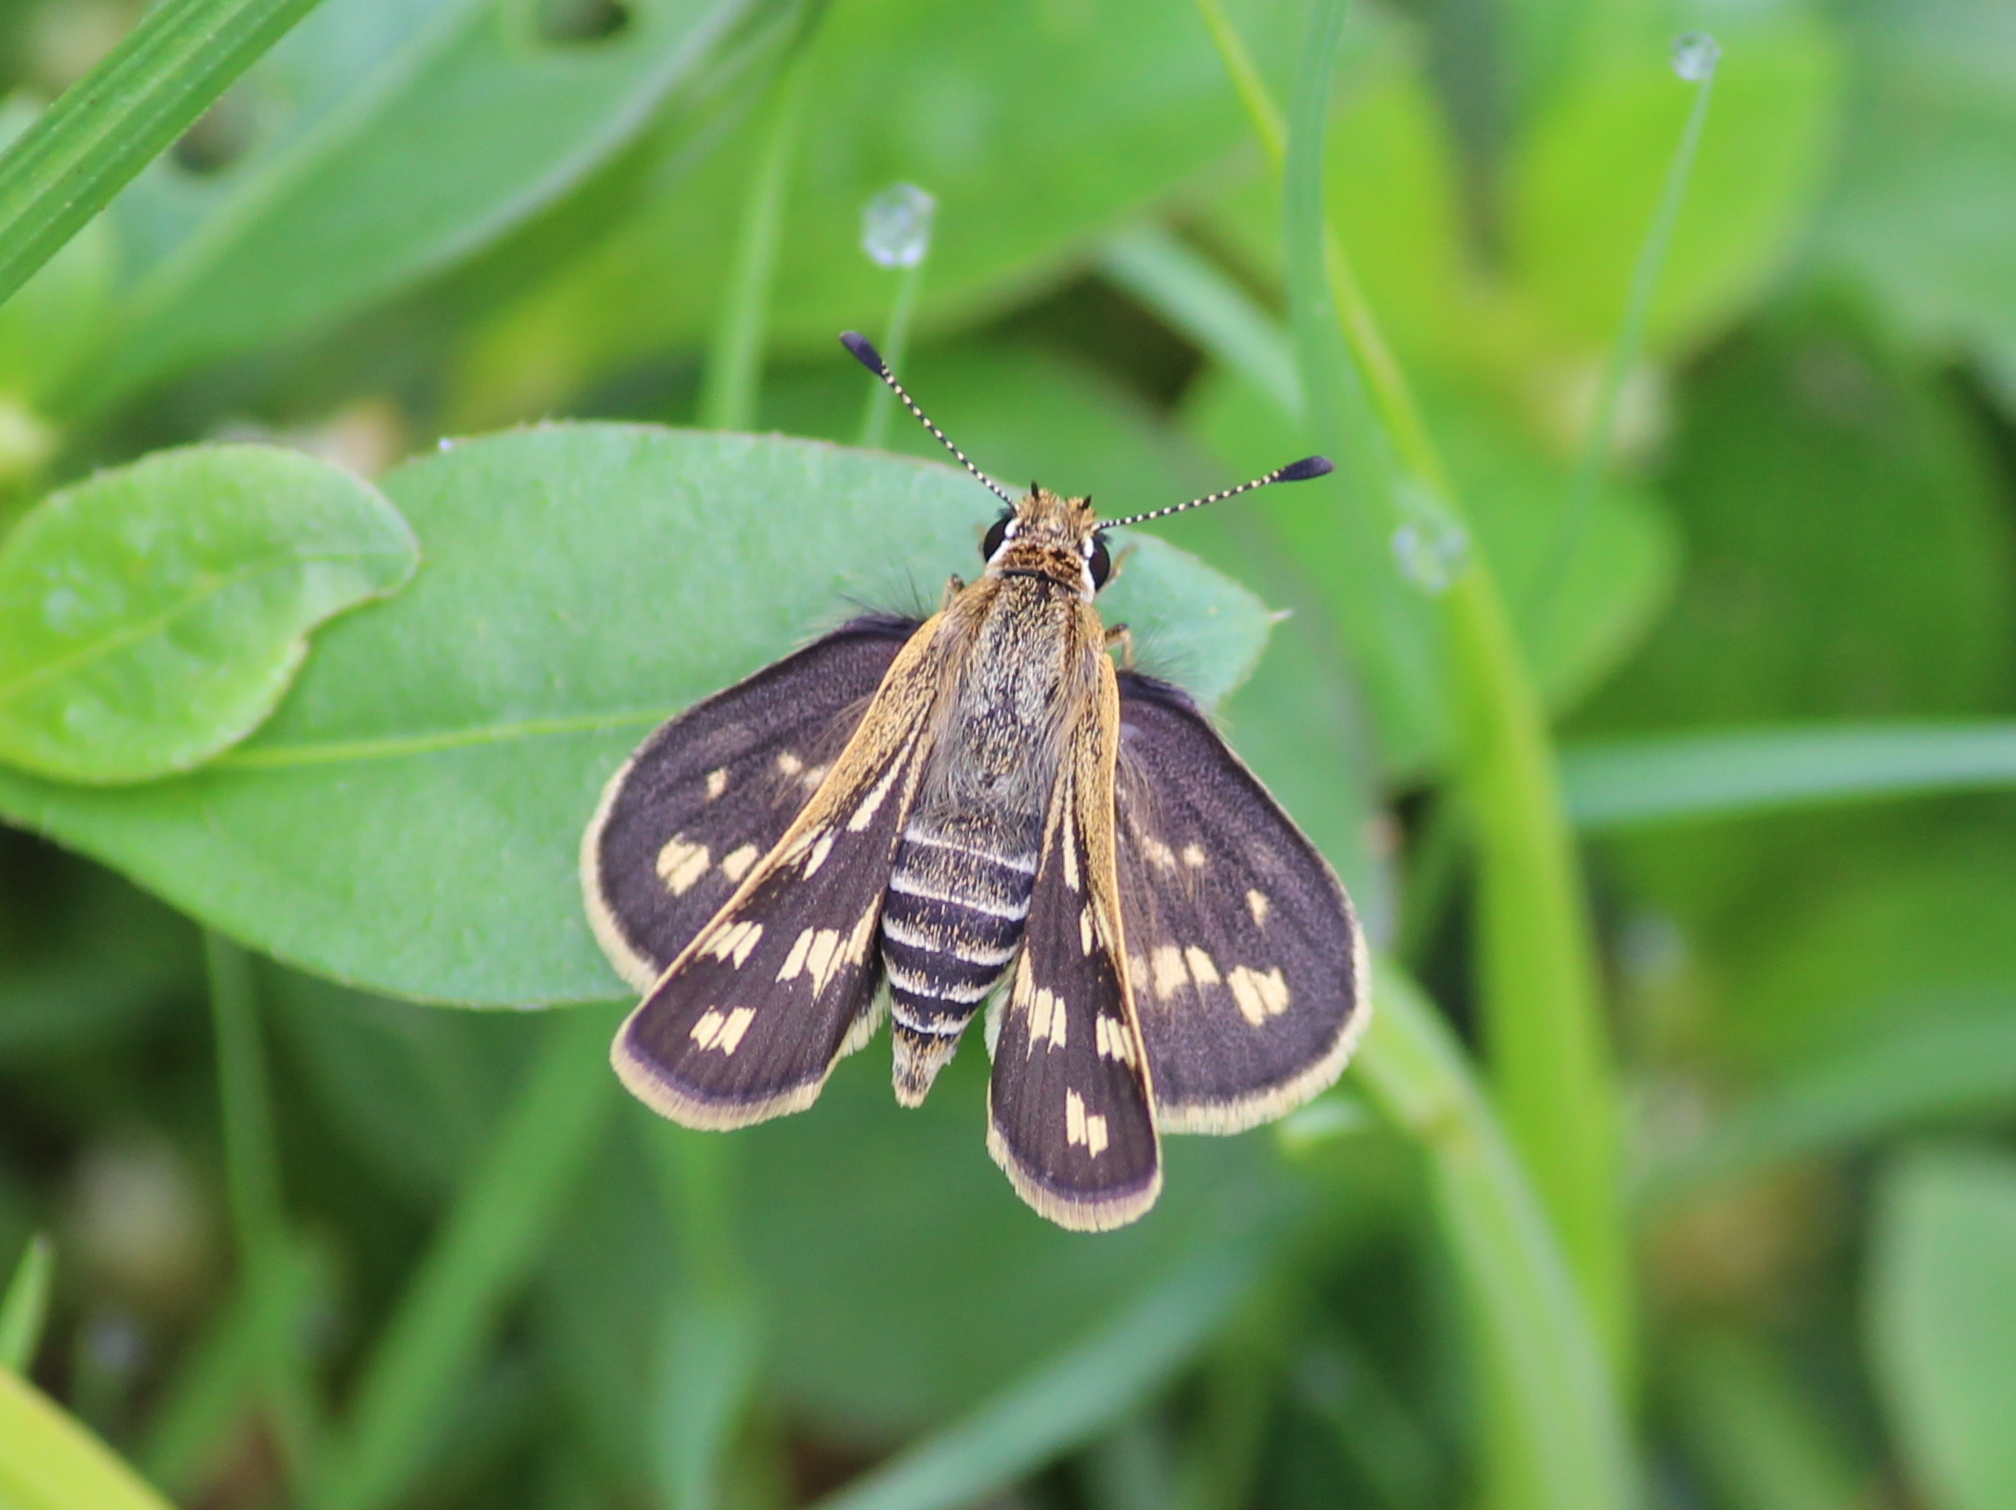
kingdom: Animalia
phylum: Arthropoda
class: Insecta
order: Lepidoptera
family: Hesperiidae
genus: Taractrocera
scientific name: Taractrocera maevius
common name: Common grass-dart
